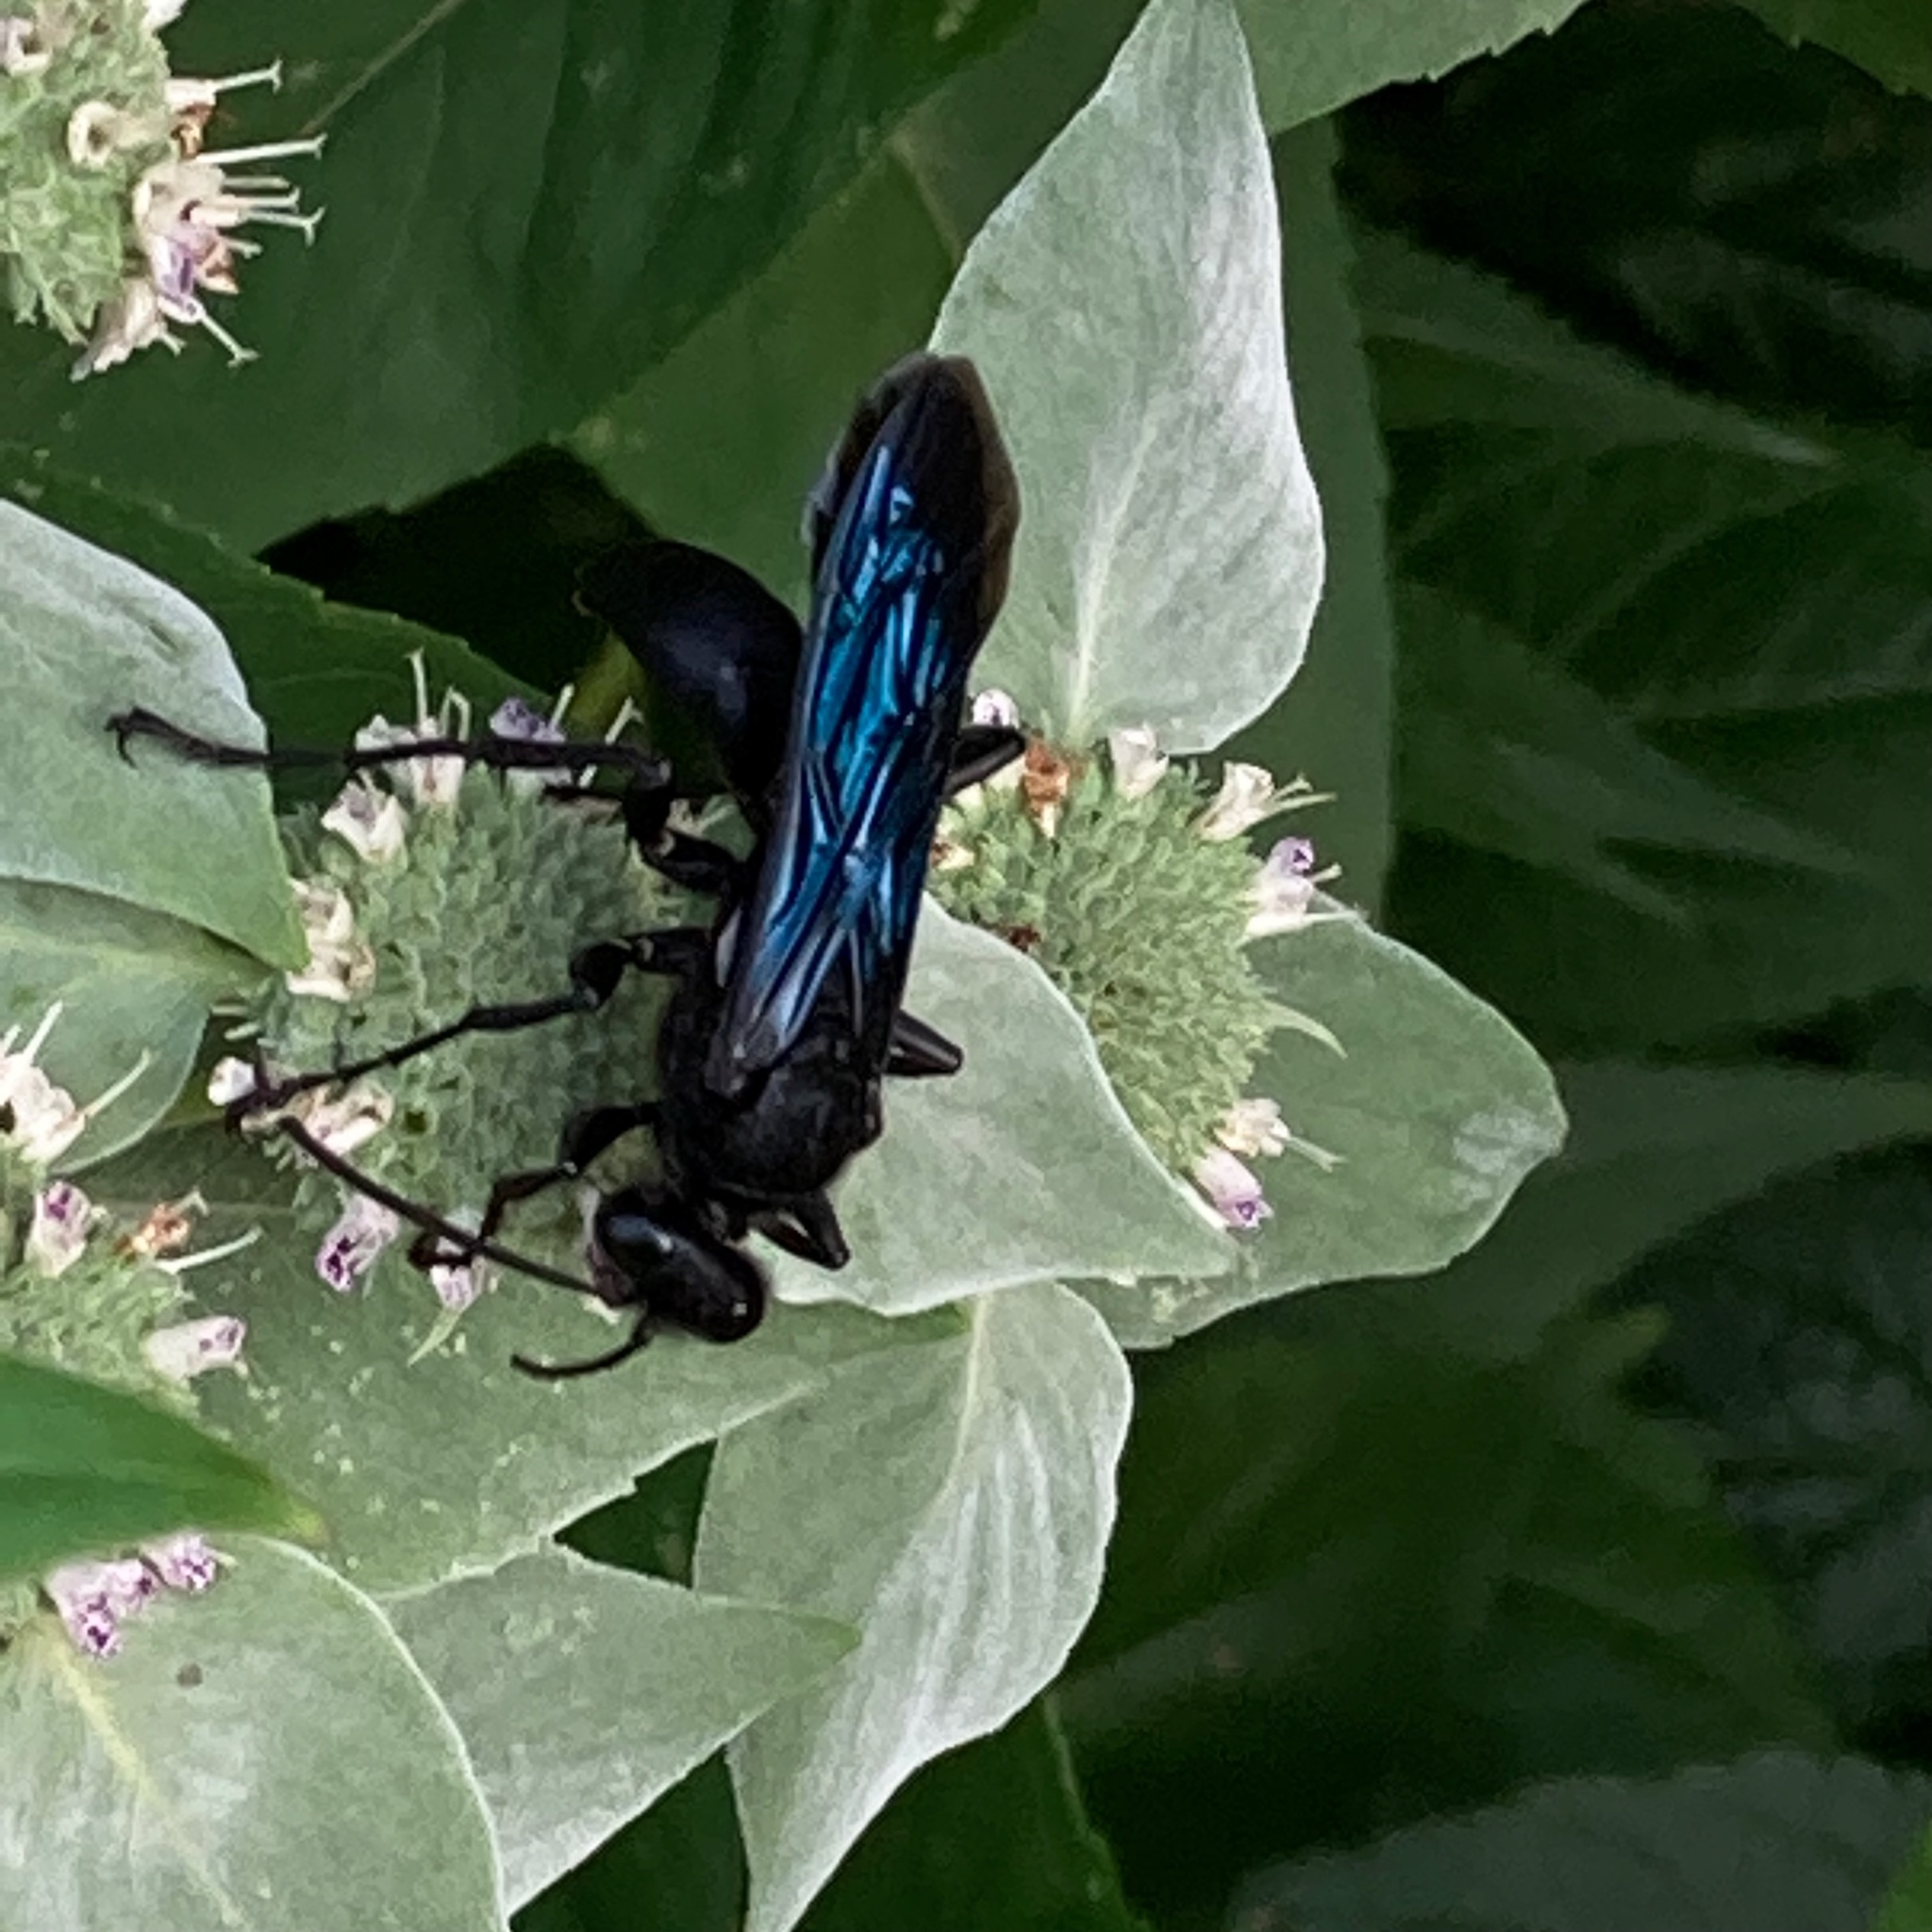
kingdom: Animalia
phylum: Arthropoda
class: Insecta
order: Hymenoptera
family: Sphecidae
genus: Sphex
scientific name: Sphex pensylvanicus
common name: Great black digger wasp
